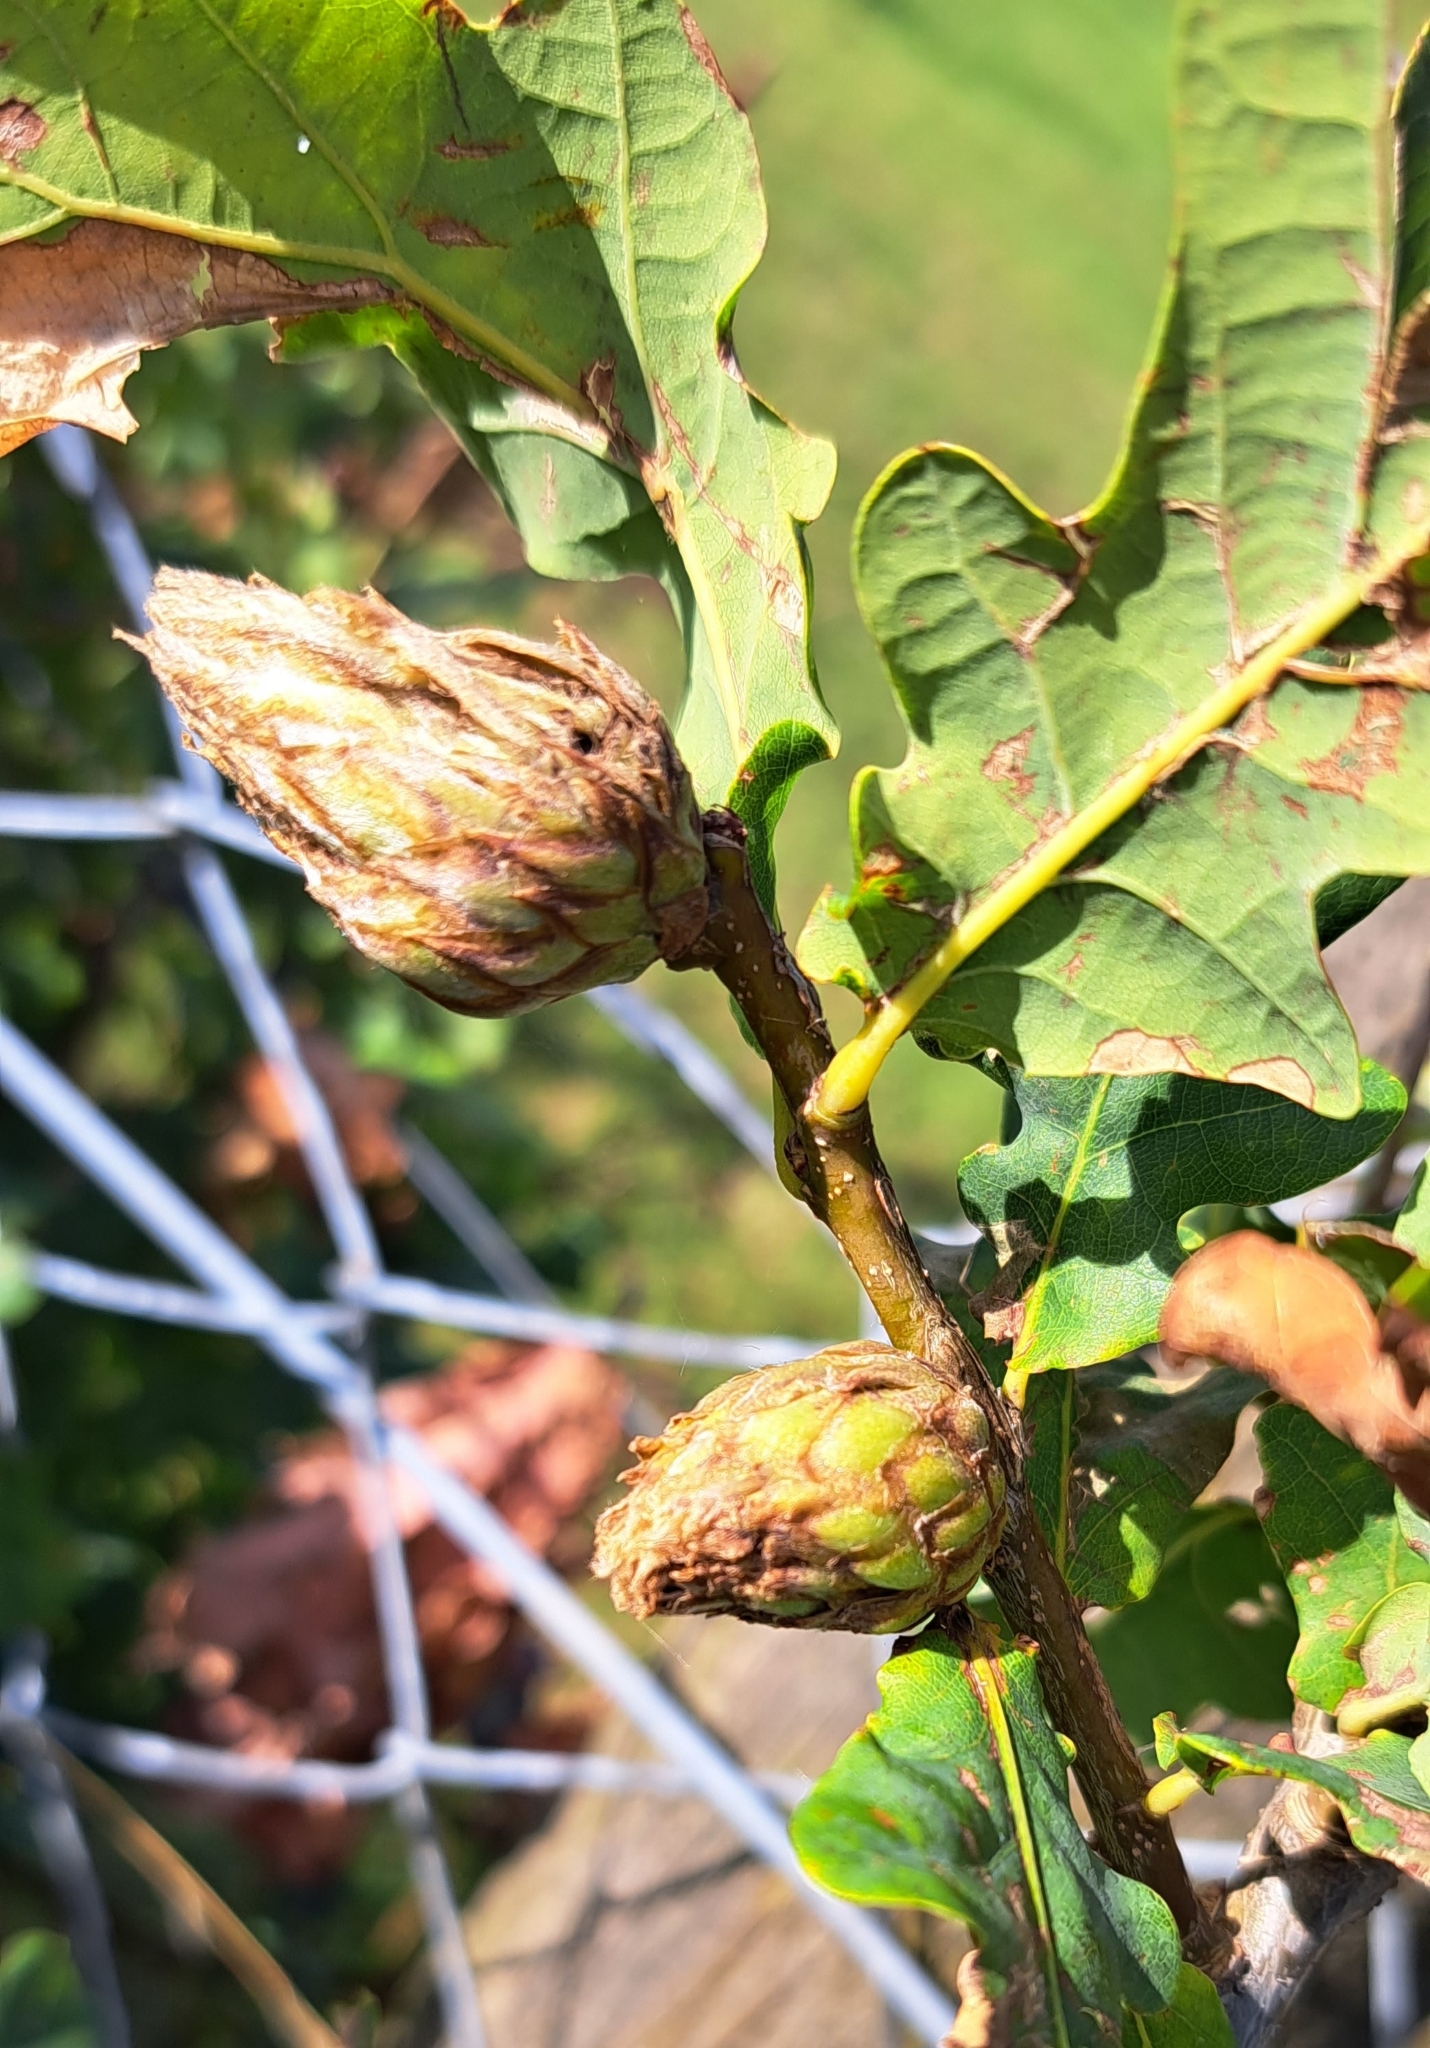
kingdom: Animalia
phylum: Arthropoda
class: Insecta
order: Hymenoptera
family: Cynipidae
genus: Andricus
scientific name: Andricus foecundatrix
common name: Artichoke gall
